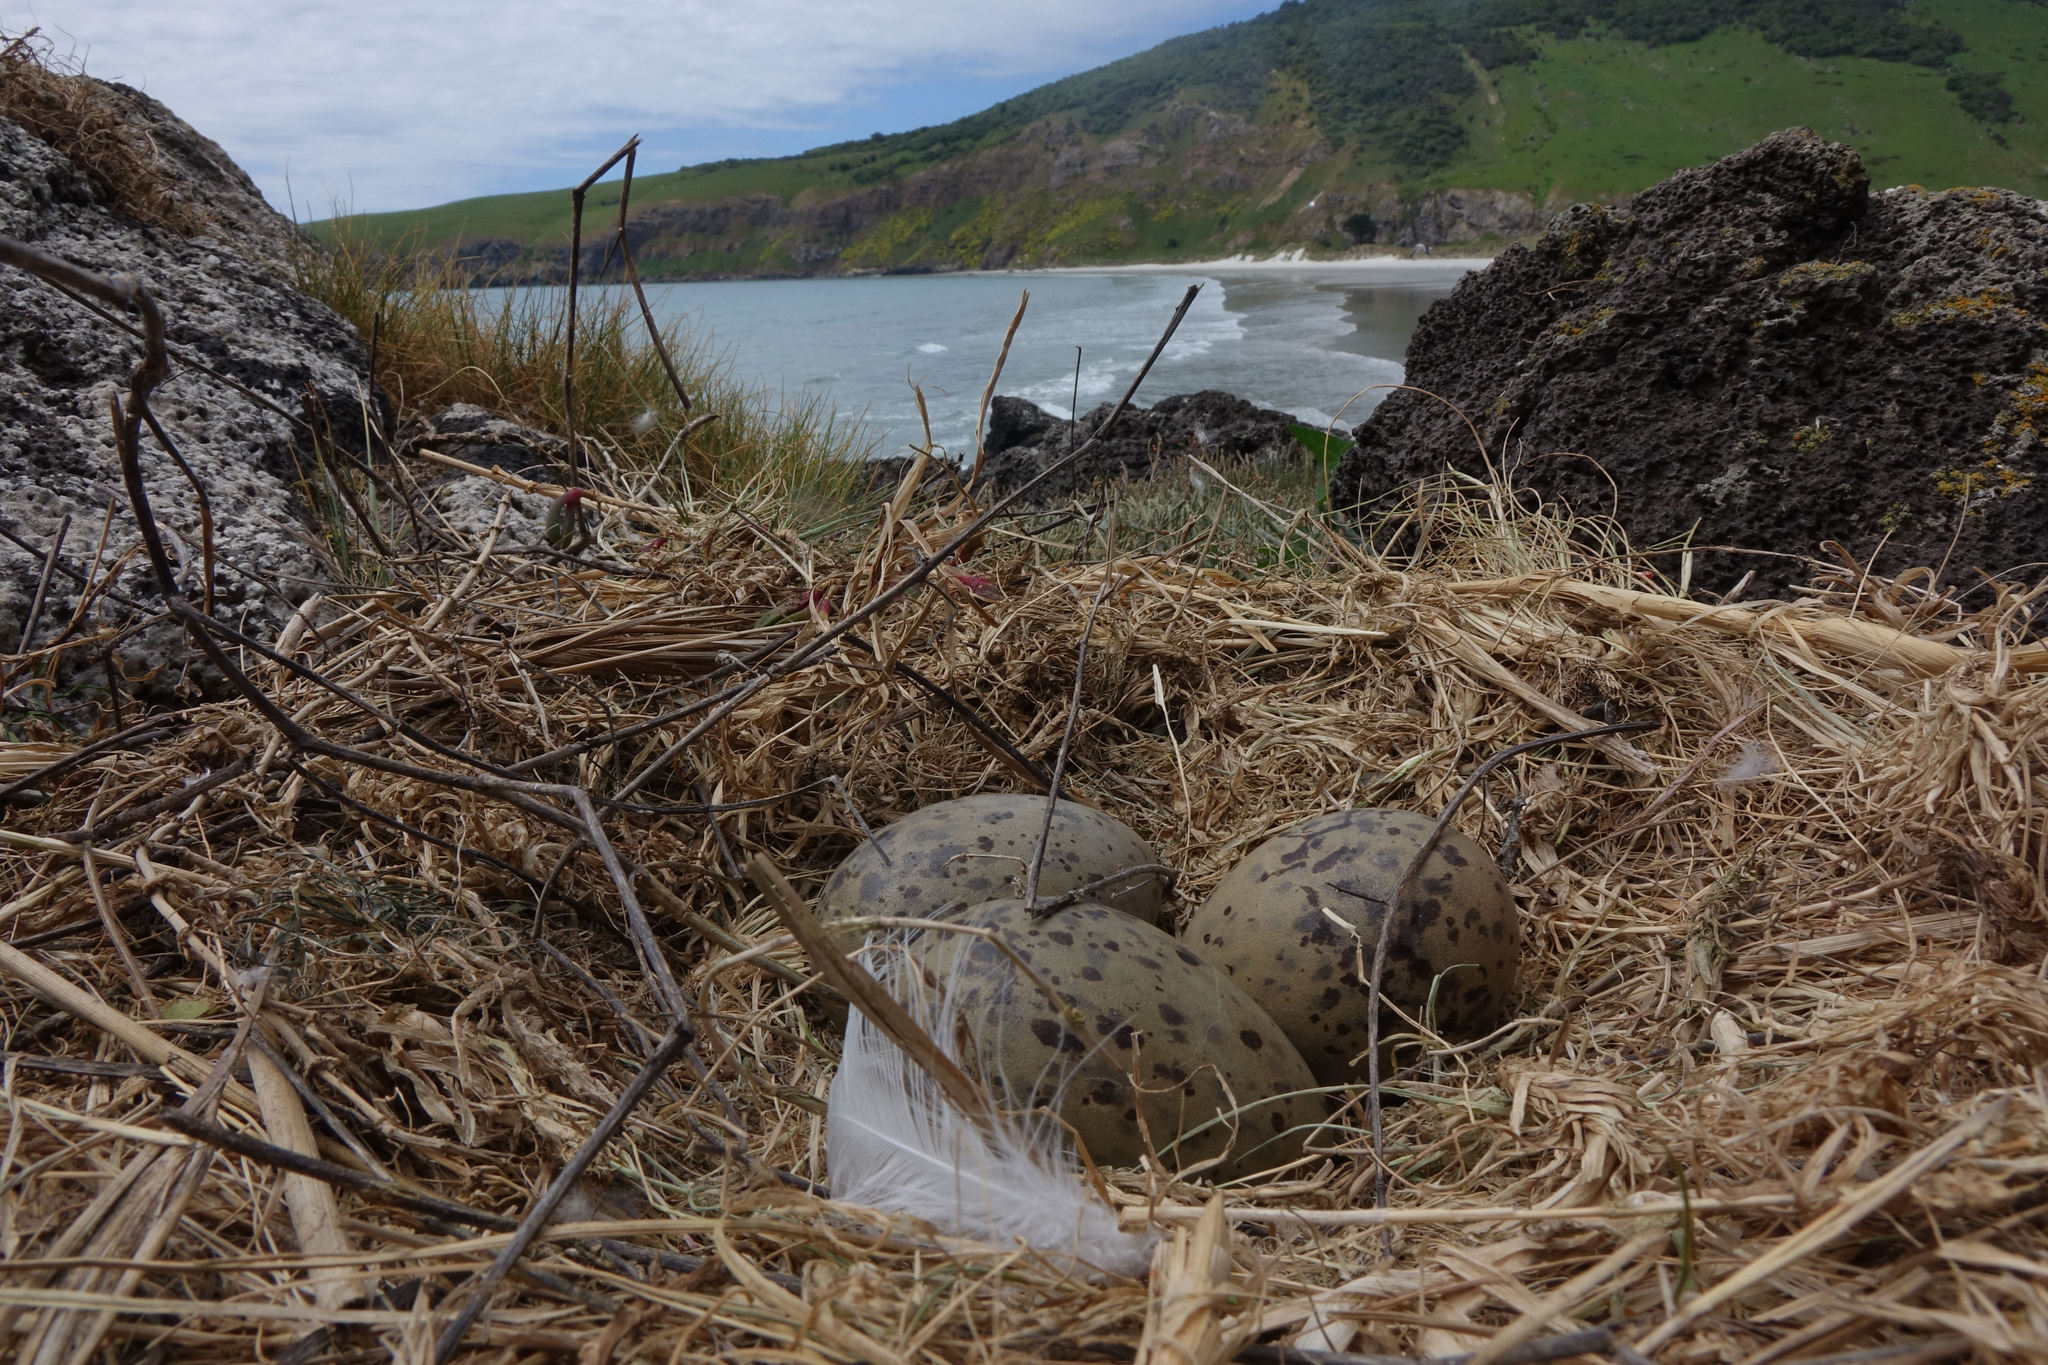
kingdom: Animalia
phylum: Chordata
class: Aves
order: Charadriiformes
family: Laridae
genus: Larus
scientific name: Larus dominicanus
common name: Kelp gull
